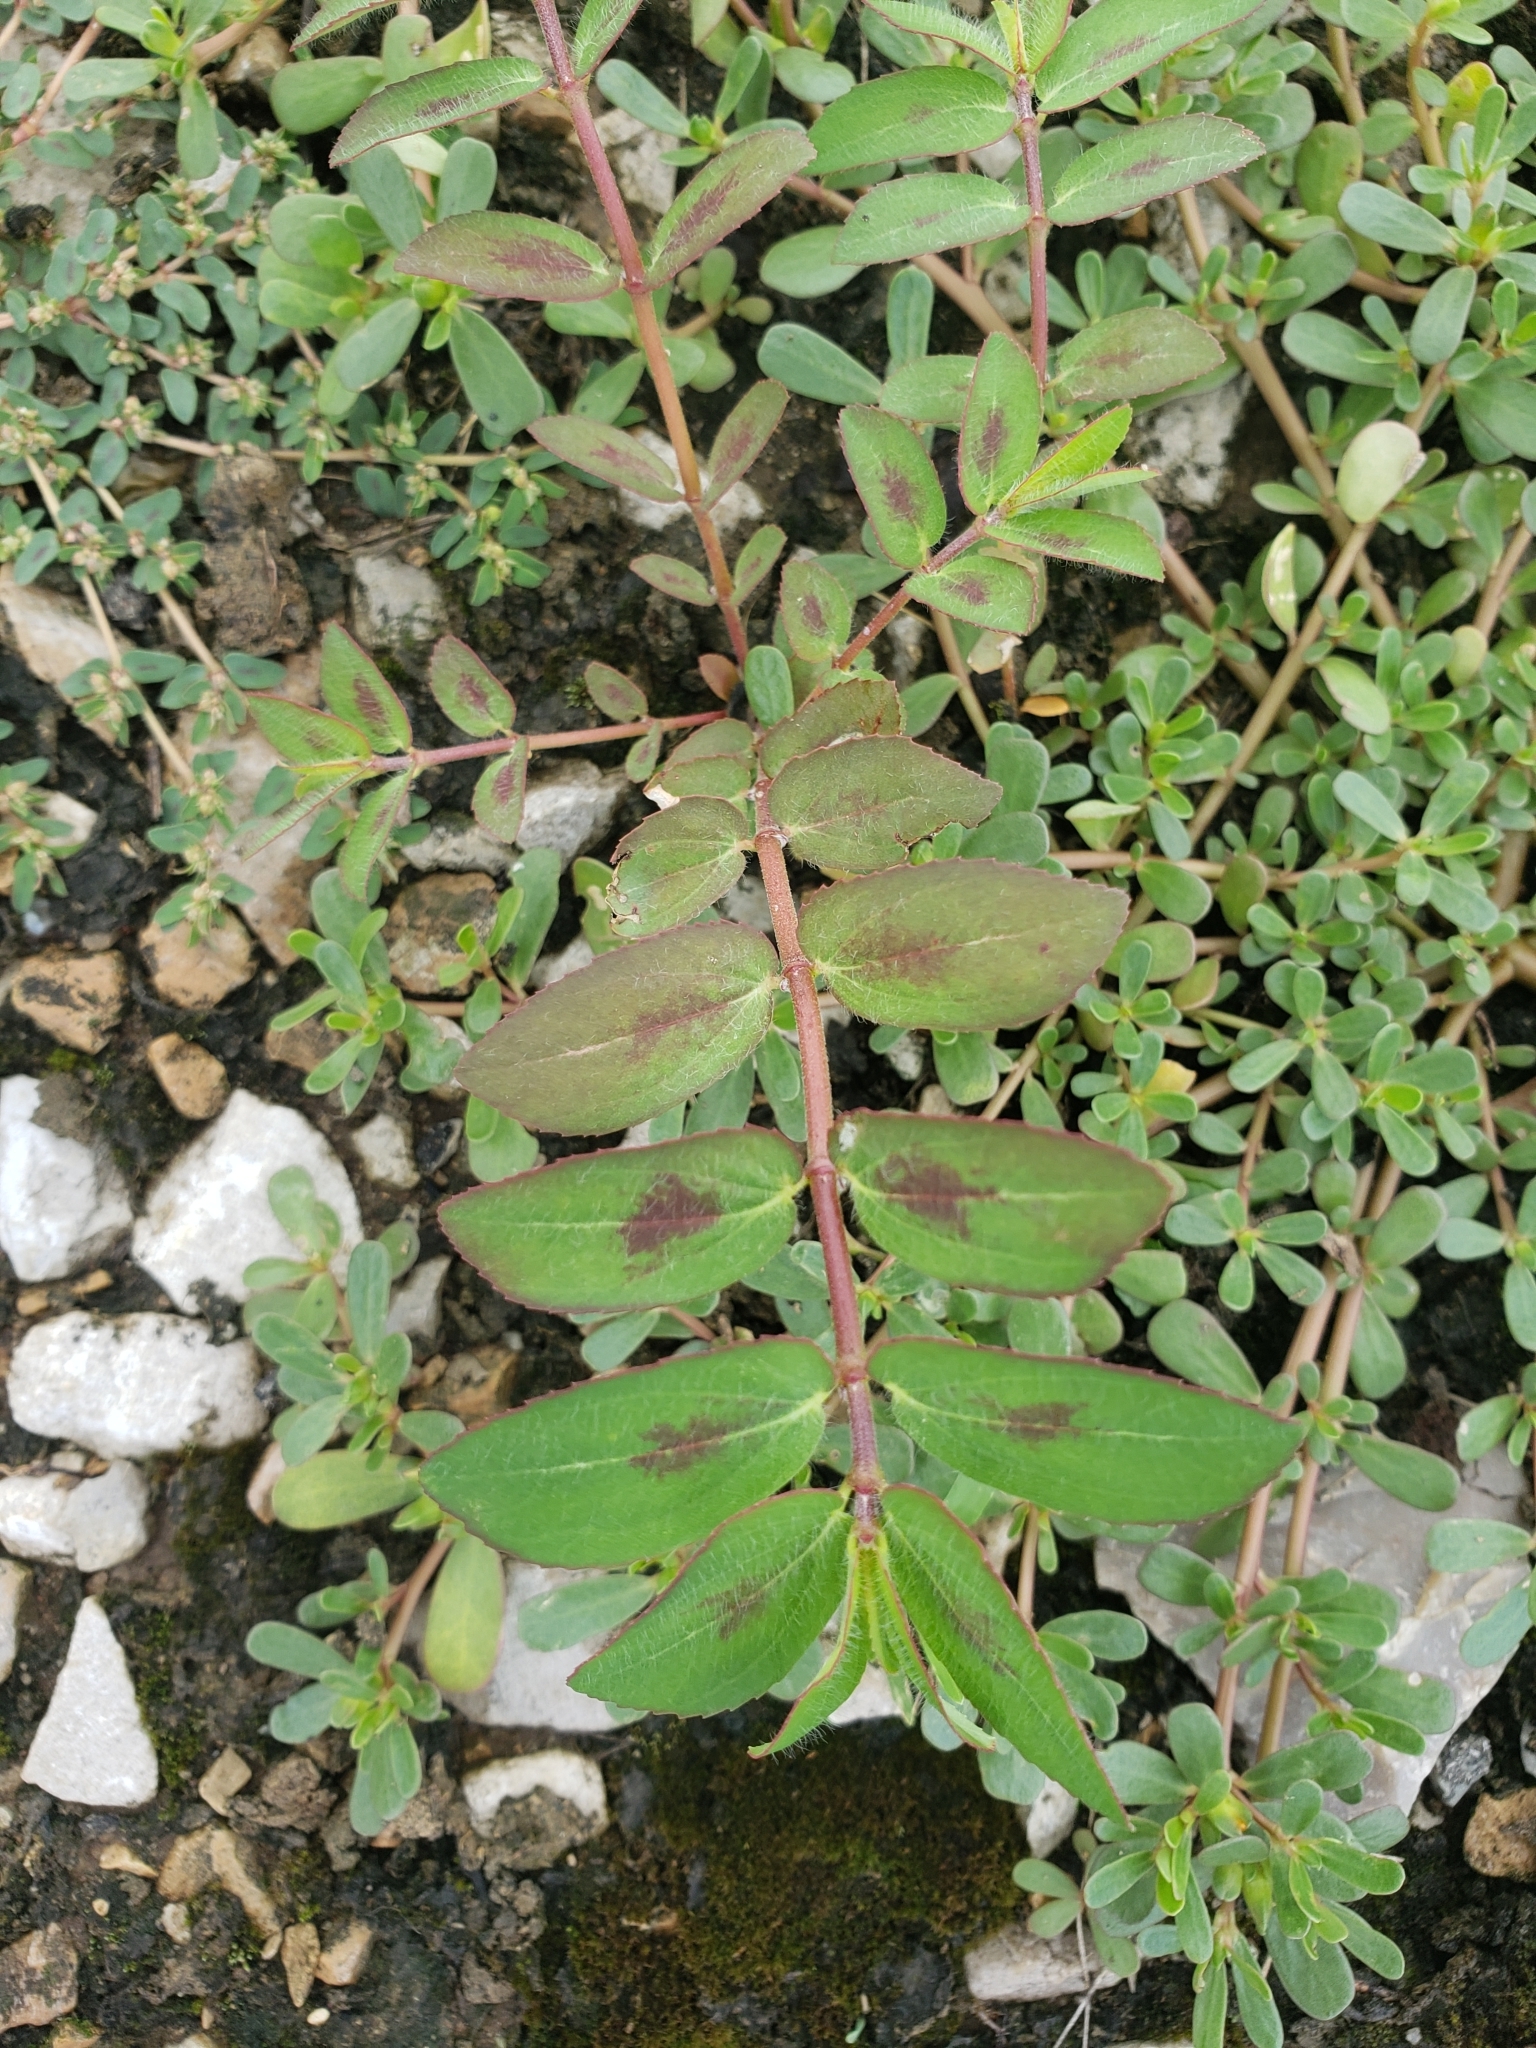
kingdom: Plantae
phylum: Tracheophyta
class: Magnoliopsida
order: Malpighiales
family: Euphorbiaceae
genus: Euphorbia
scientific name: Euphorbia nutans
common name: Eyebane
